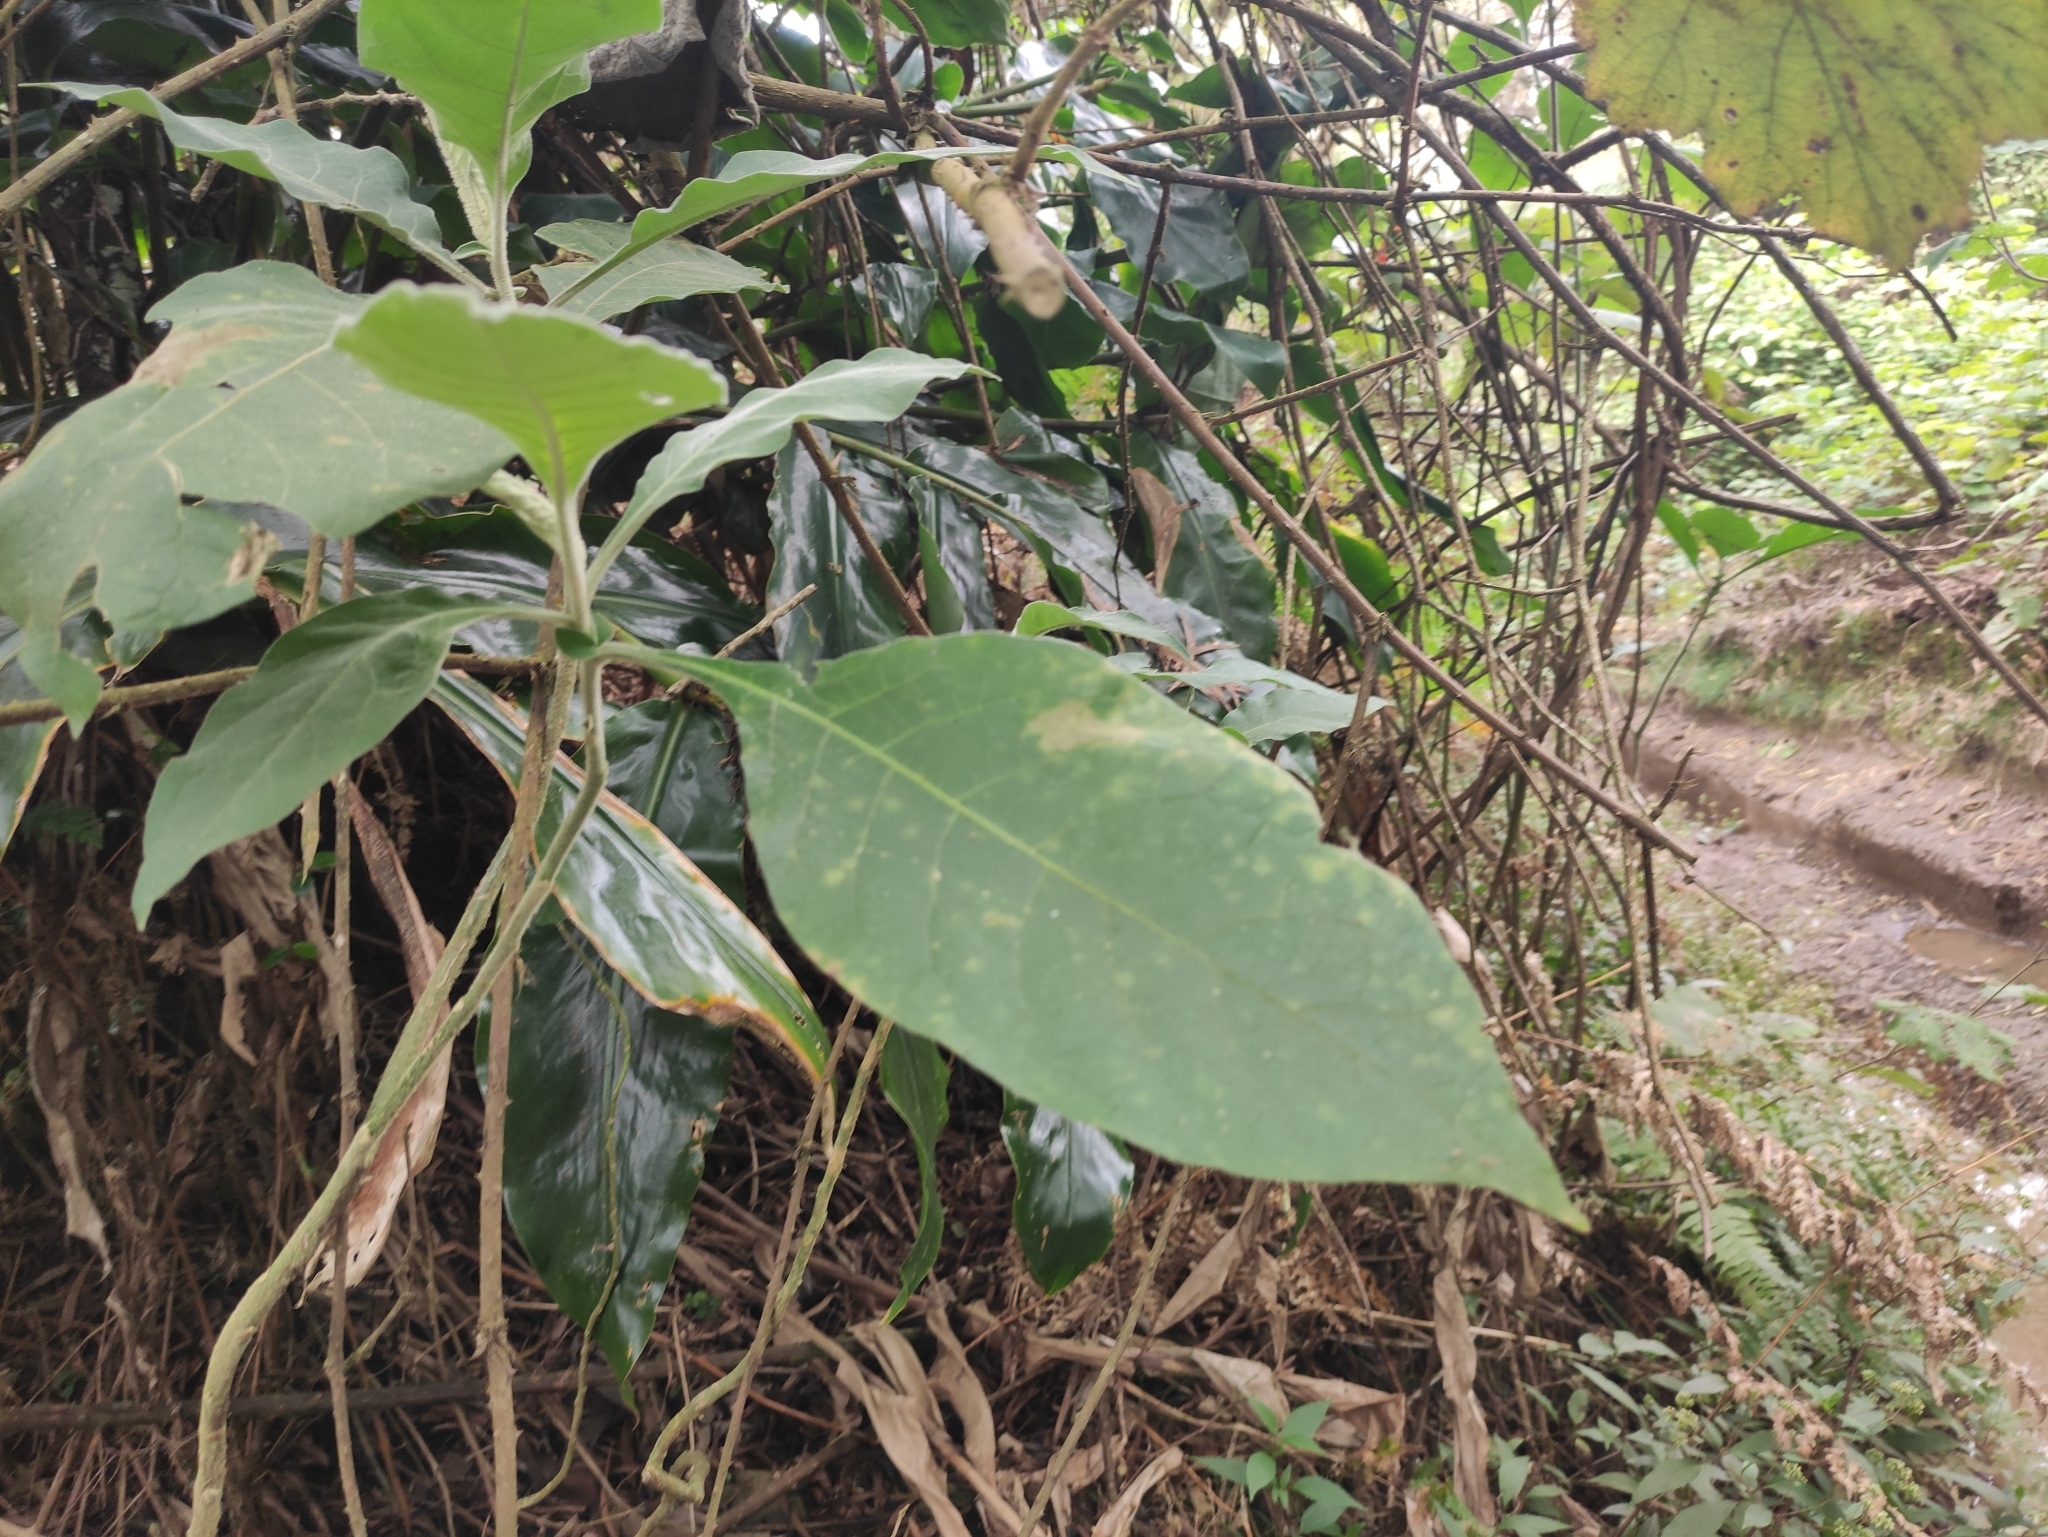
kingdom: Plantae
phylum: Tracheophyta
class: Magnoliopsida
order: Solanales
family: Solanaceae
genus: Solanum
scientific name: Solanum mauritianum
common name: Earleaf nightshade
